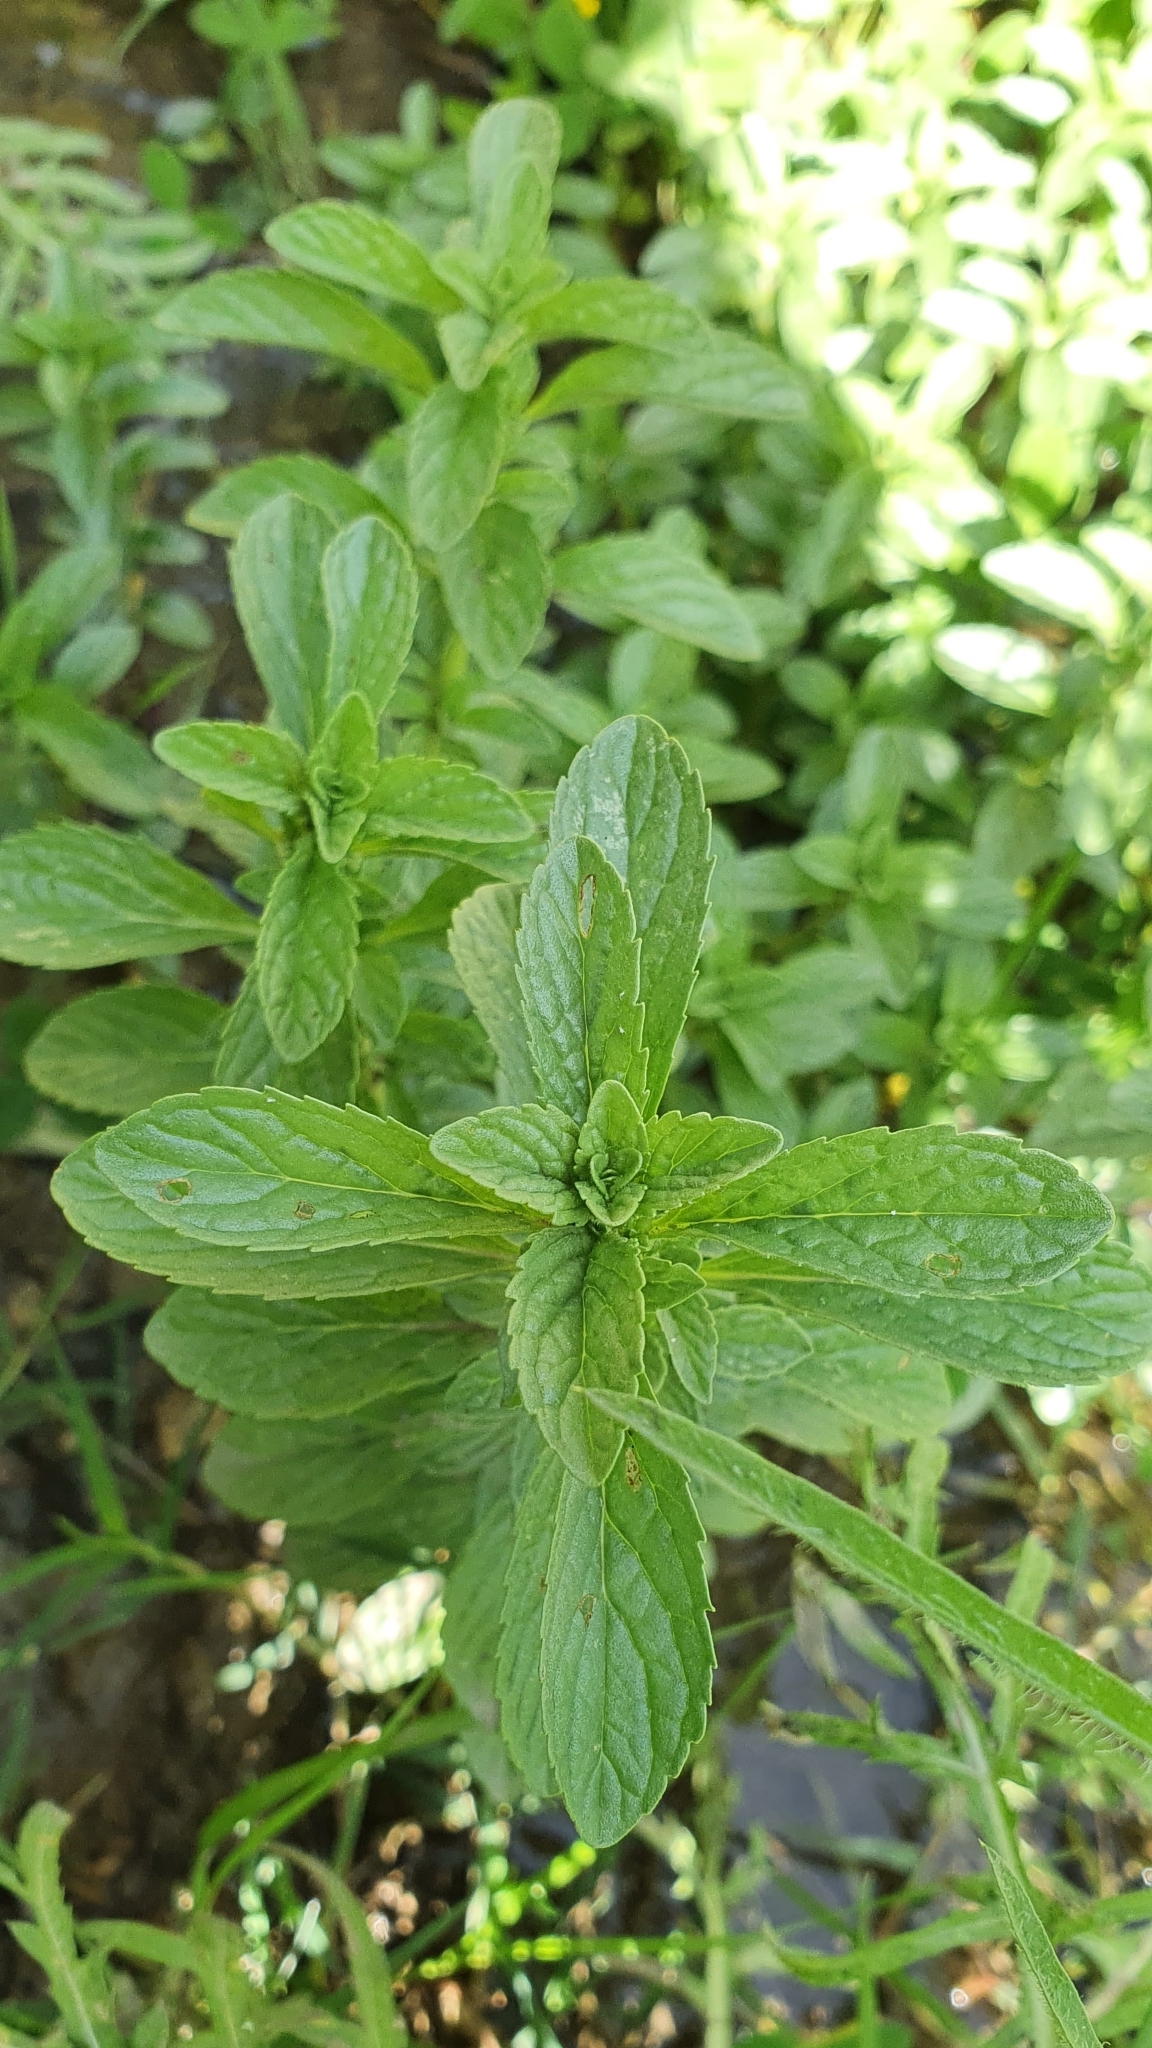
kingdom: Plantae
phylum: Tracheophyta
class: Magnoliopsida
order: Lamiales
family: Lamiaceae
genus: Mentha
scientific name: Mentha pulegium
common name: Pennyroyal
